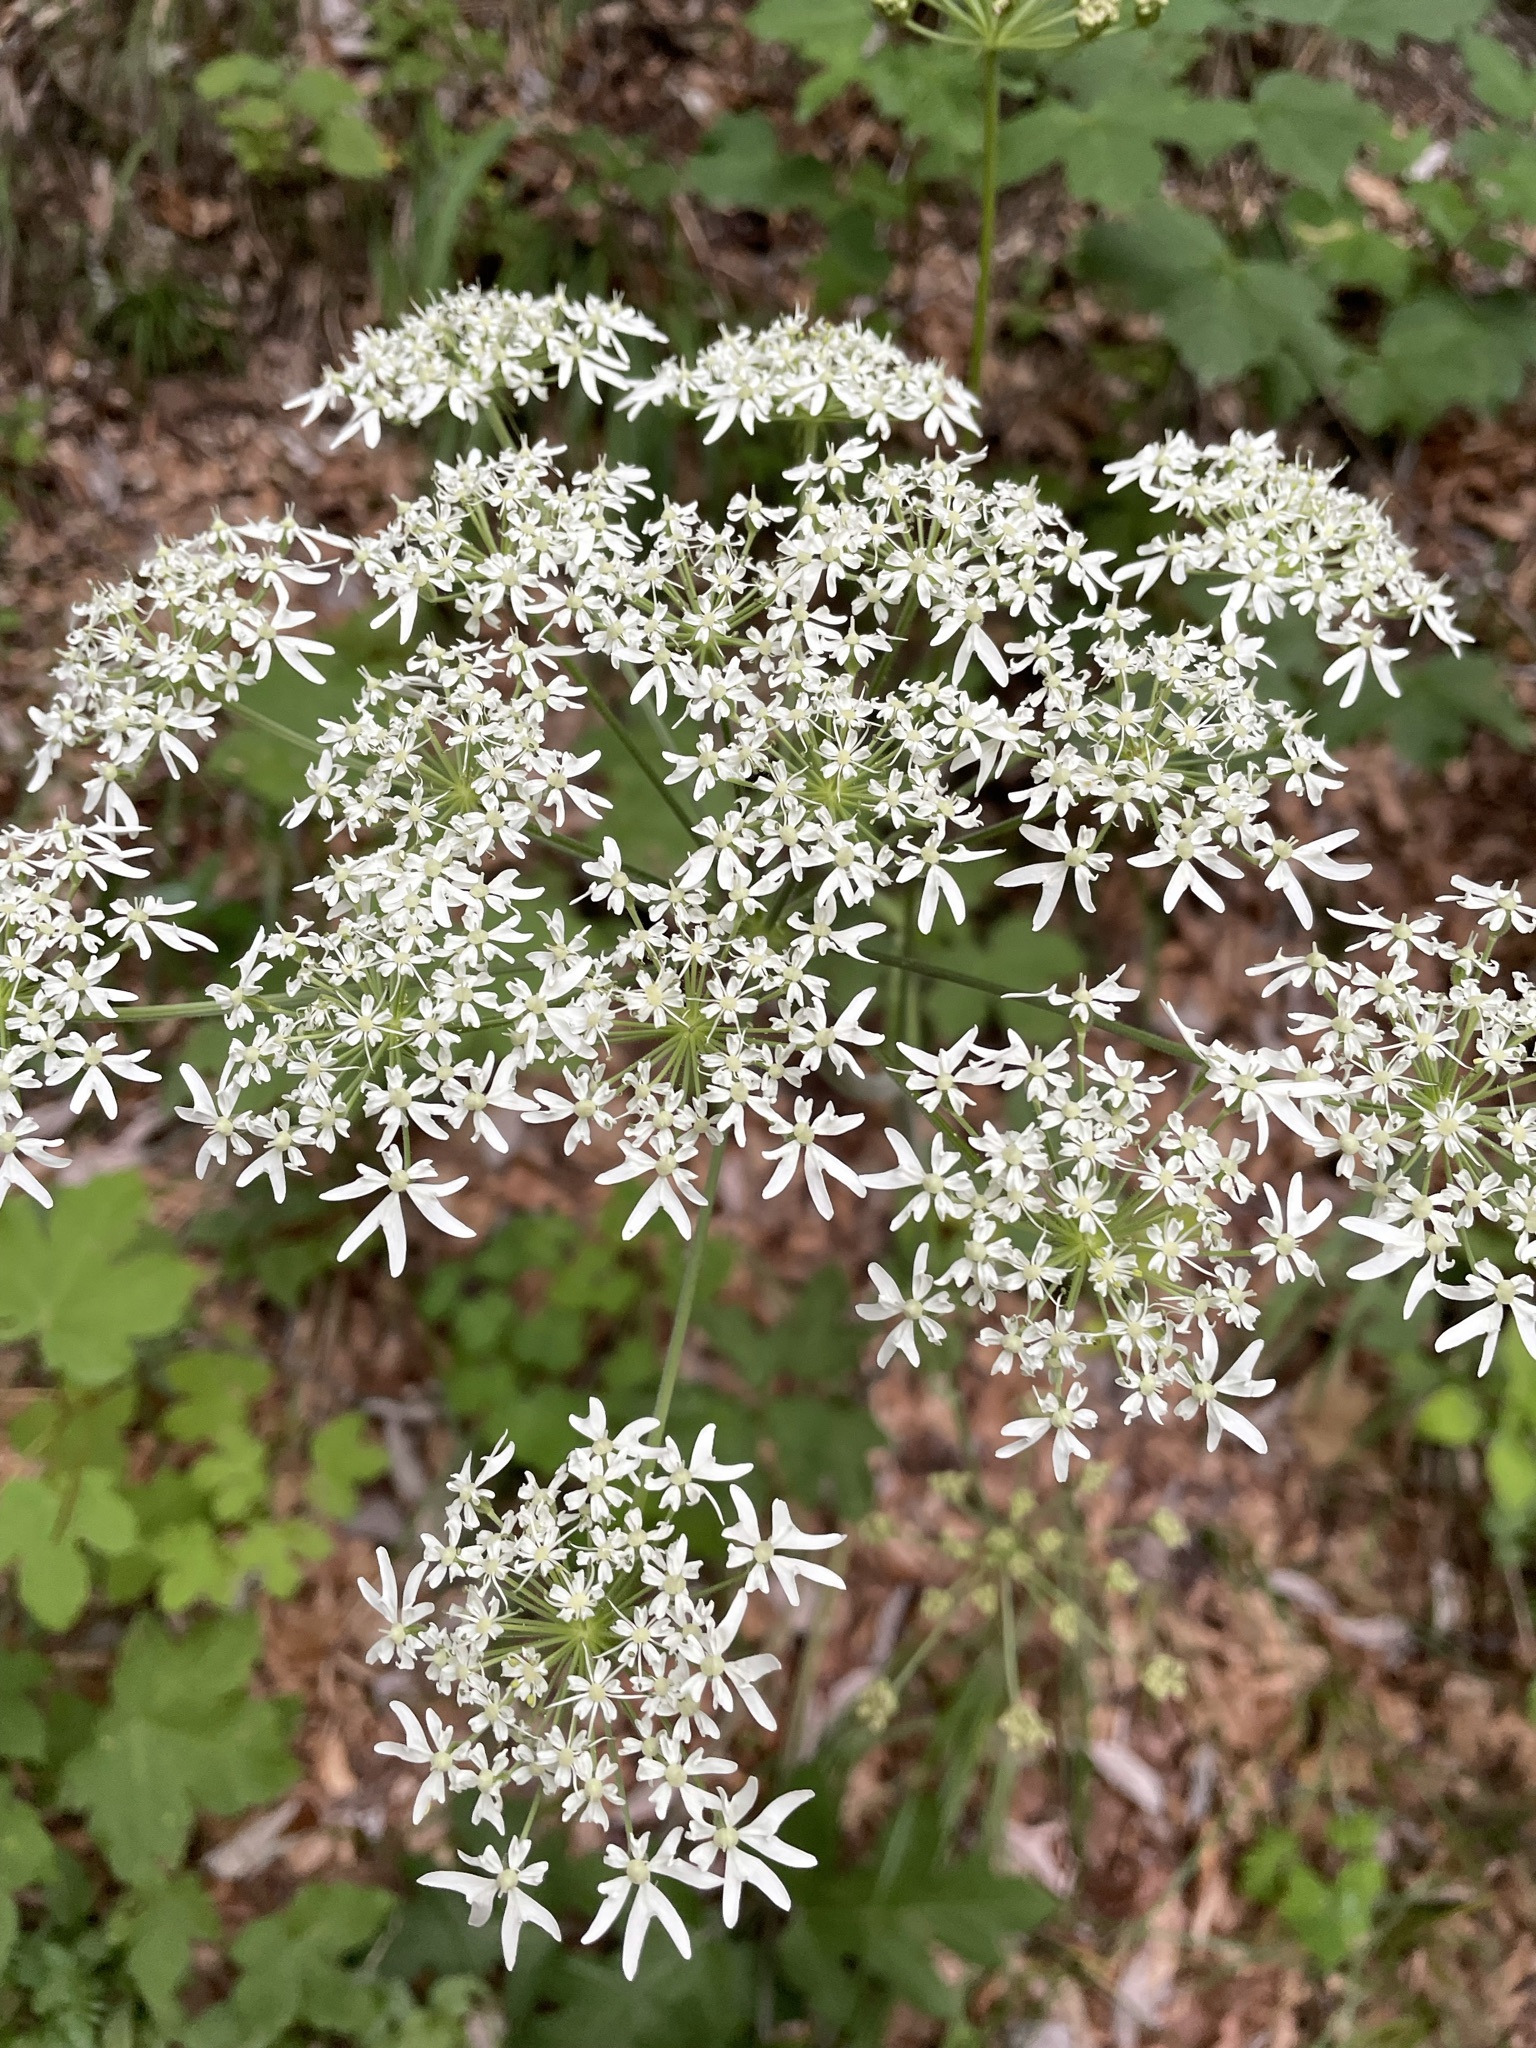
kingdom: Plantae
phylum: Tracheophyta
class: Magnoliopsida
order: Apiales
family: Apiaceae
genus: Heracleum
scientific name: Heracleum sphondylium
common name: Hogweed
